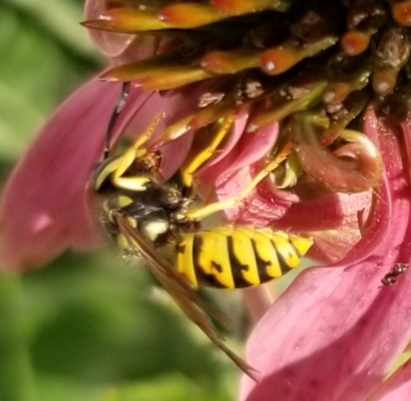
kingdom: Animalia
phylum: Arthropoda
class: Insecta
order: Hymenoptera
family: Vespidae
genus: Vespula
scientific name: Vespula germanica
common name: German wasp
